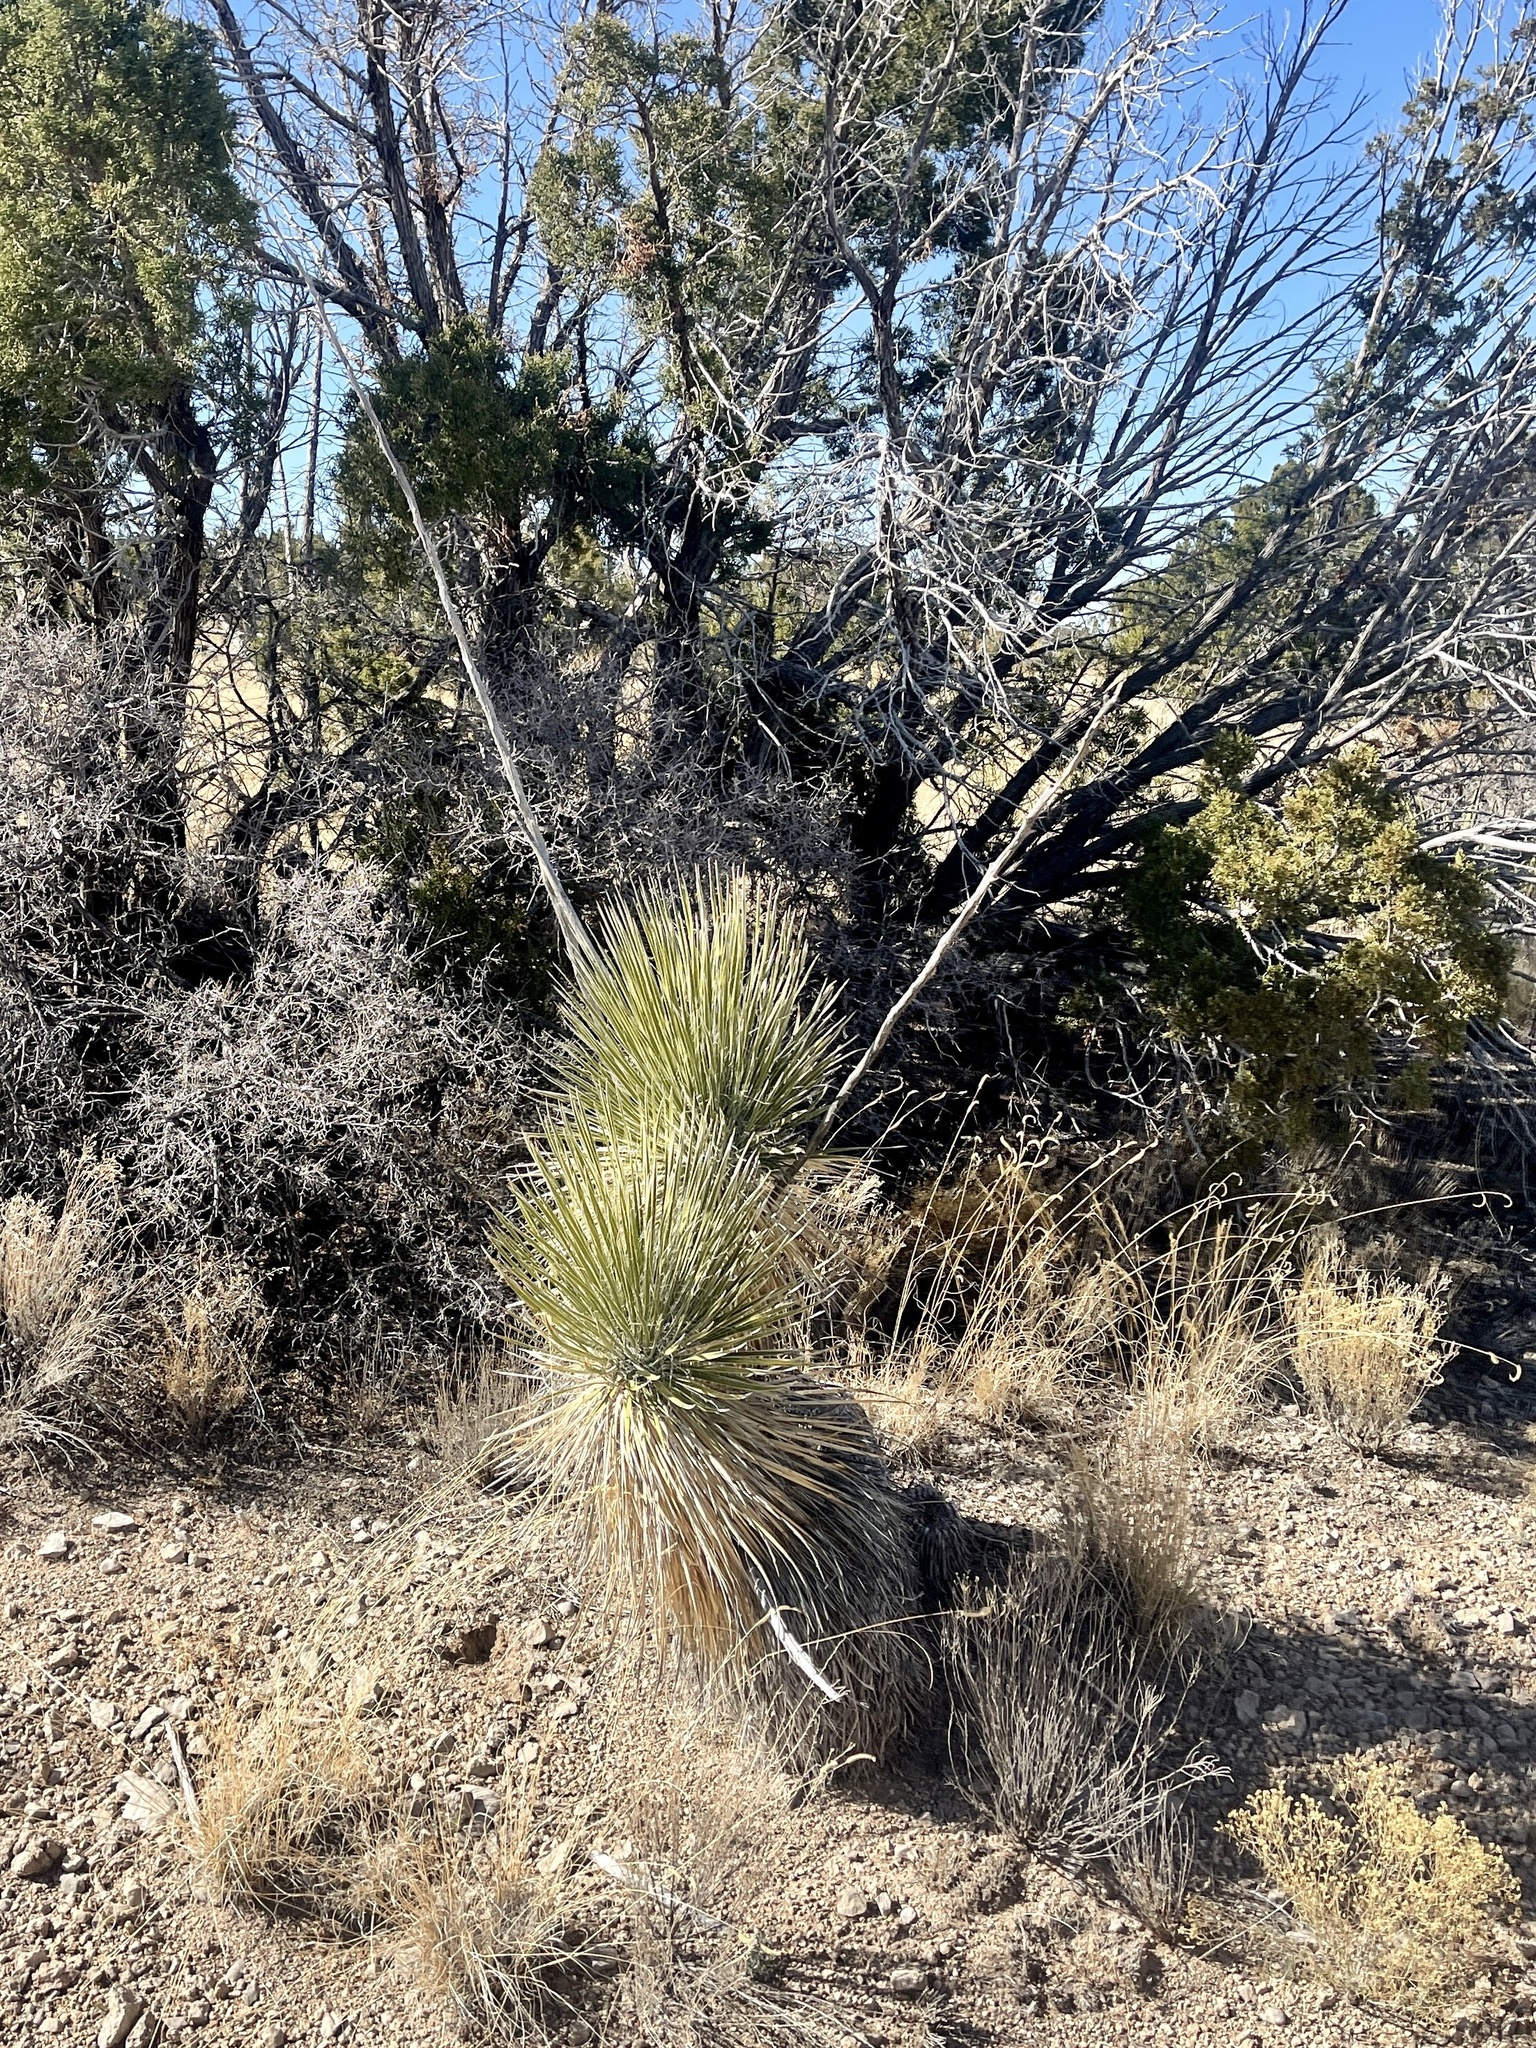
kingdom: Plantae
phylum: Tracheophyta
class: Liliopsida
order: Asparagales
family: Asparagaceae
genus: Yucca
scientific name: Yucca elata
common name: Palmella
